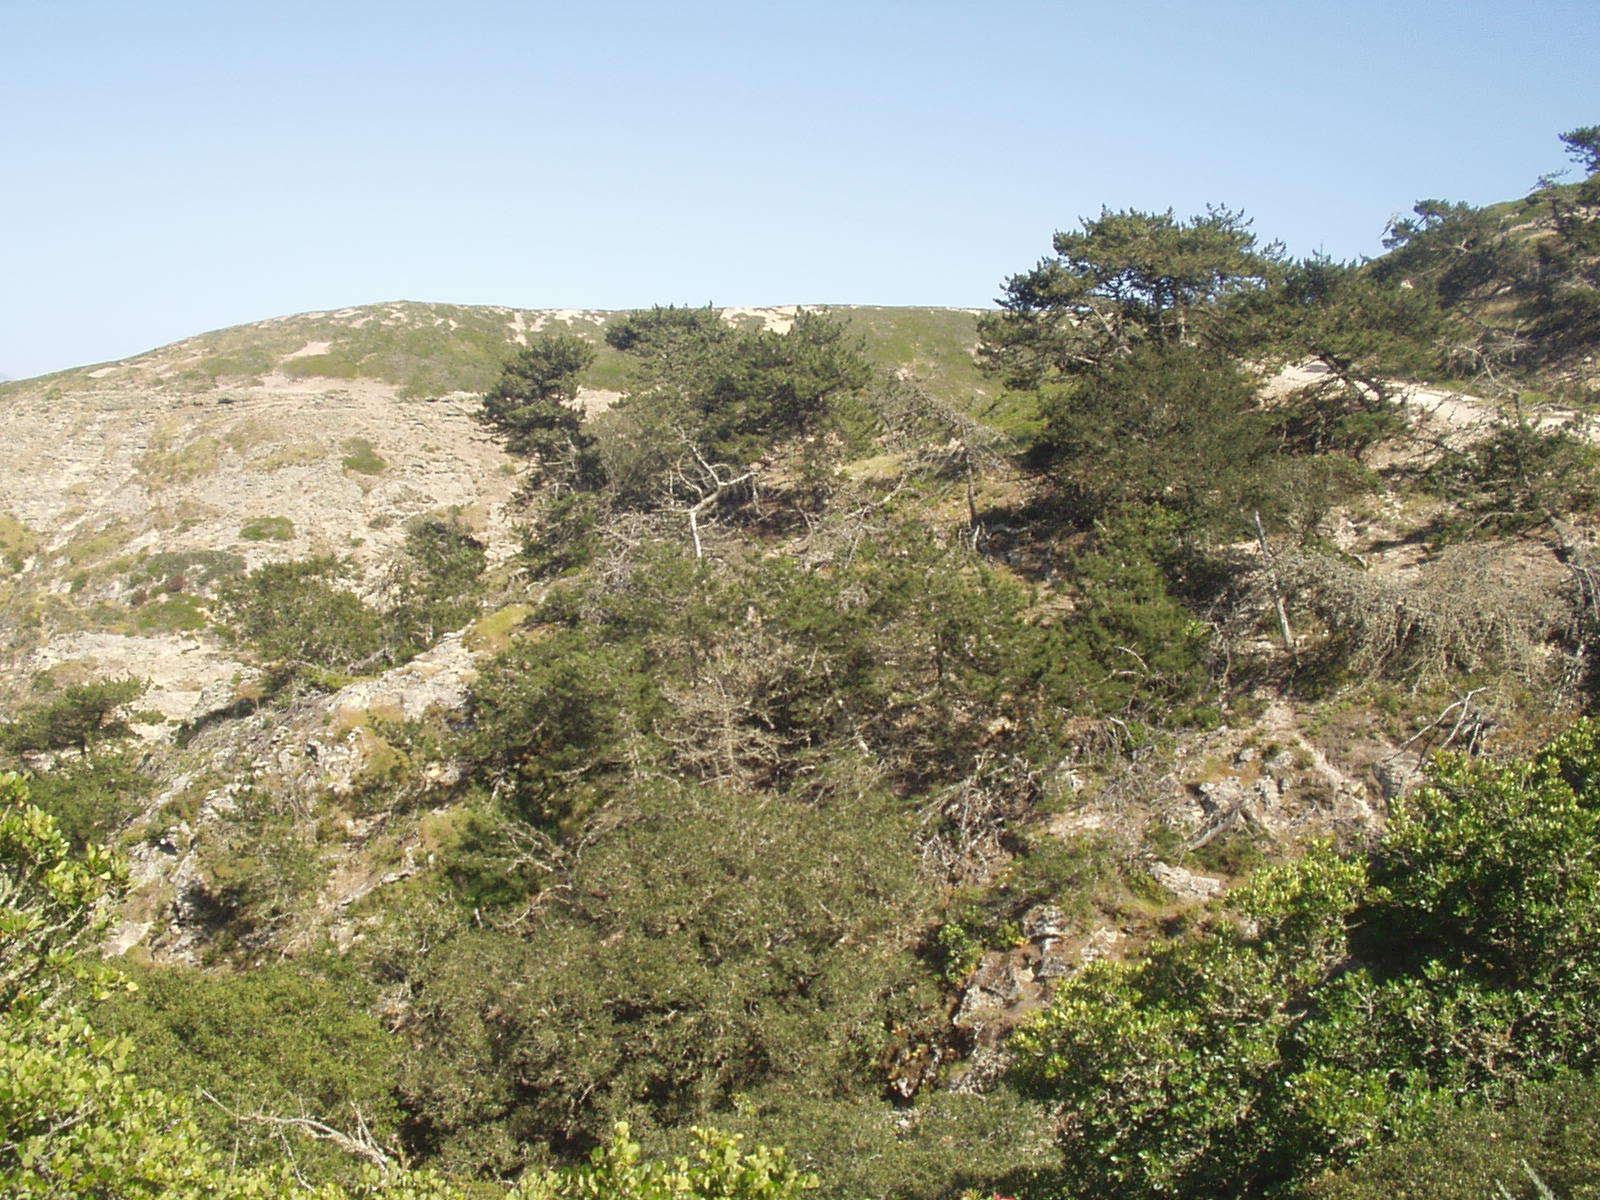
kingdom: Plantae
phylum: Tracheophyta
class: Pinopsida
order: Pinales
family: Pinaceae
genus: Pinus
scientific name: Pinus muricata
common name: Bishop pine
